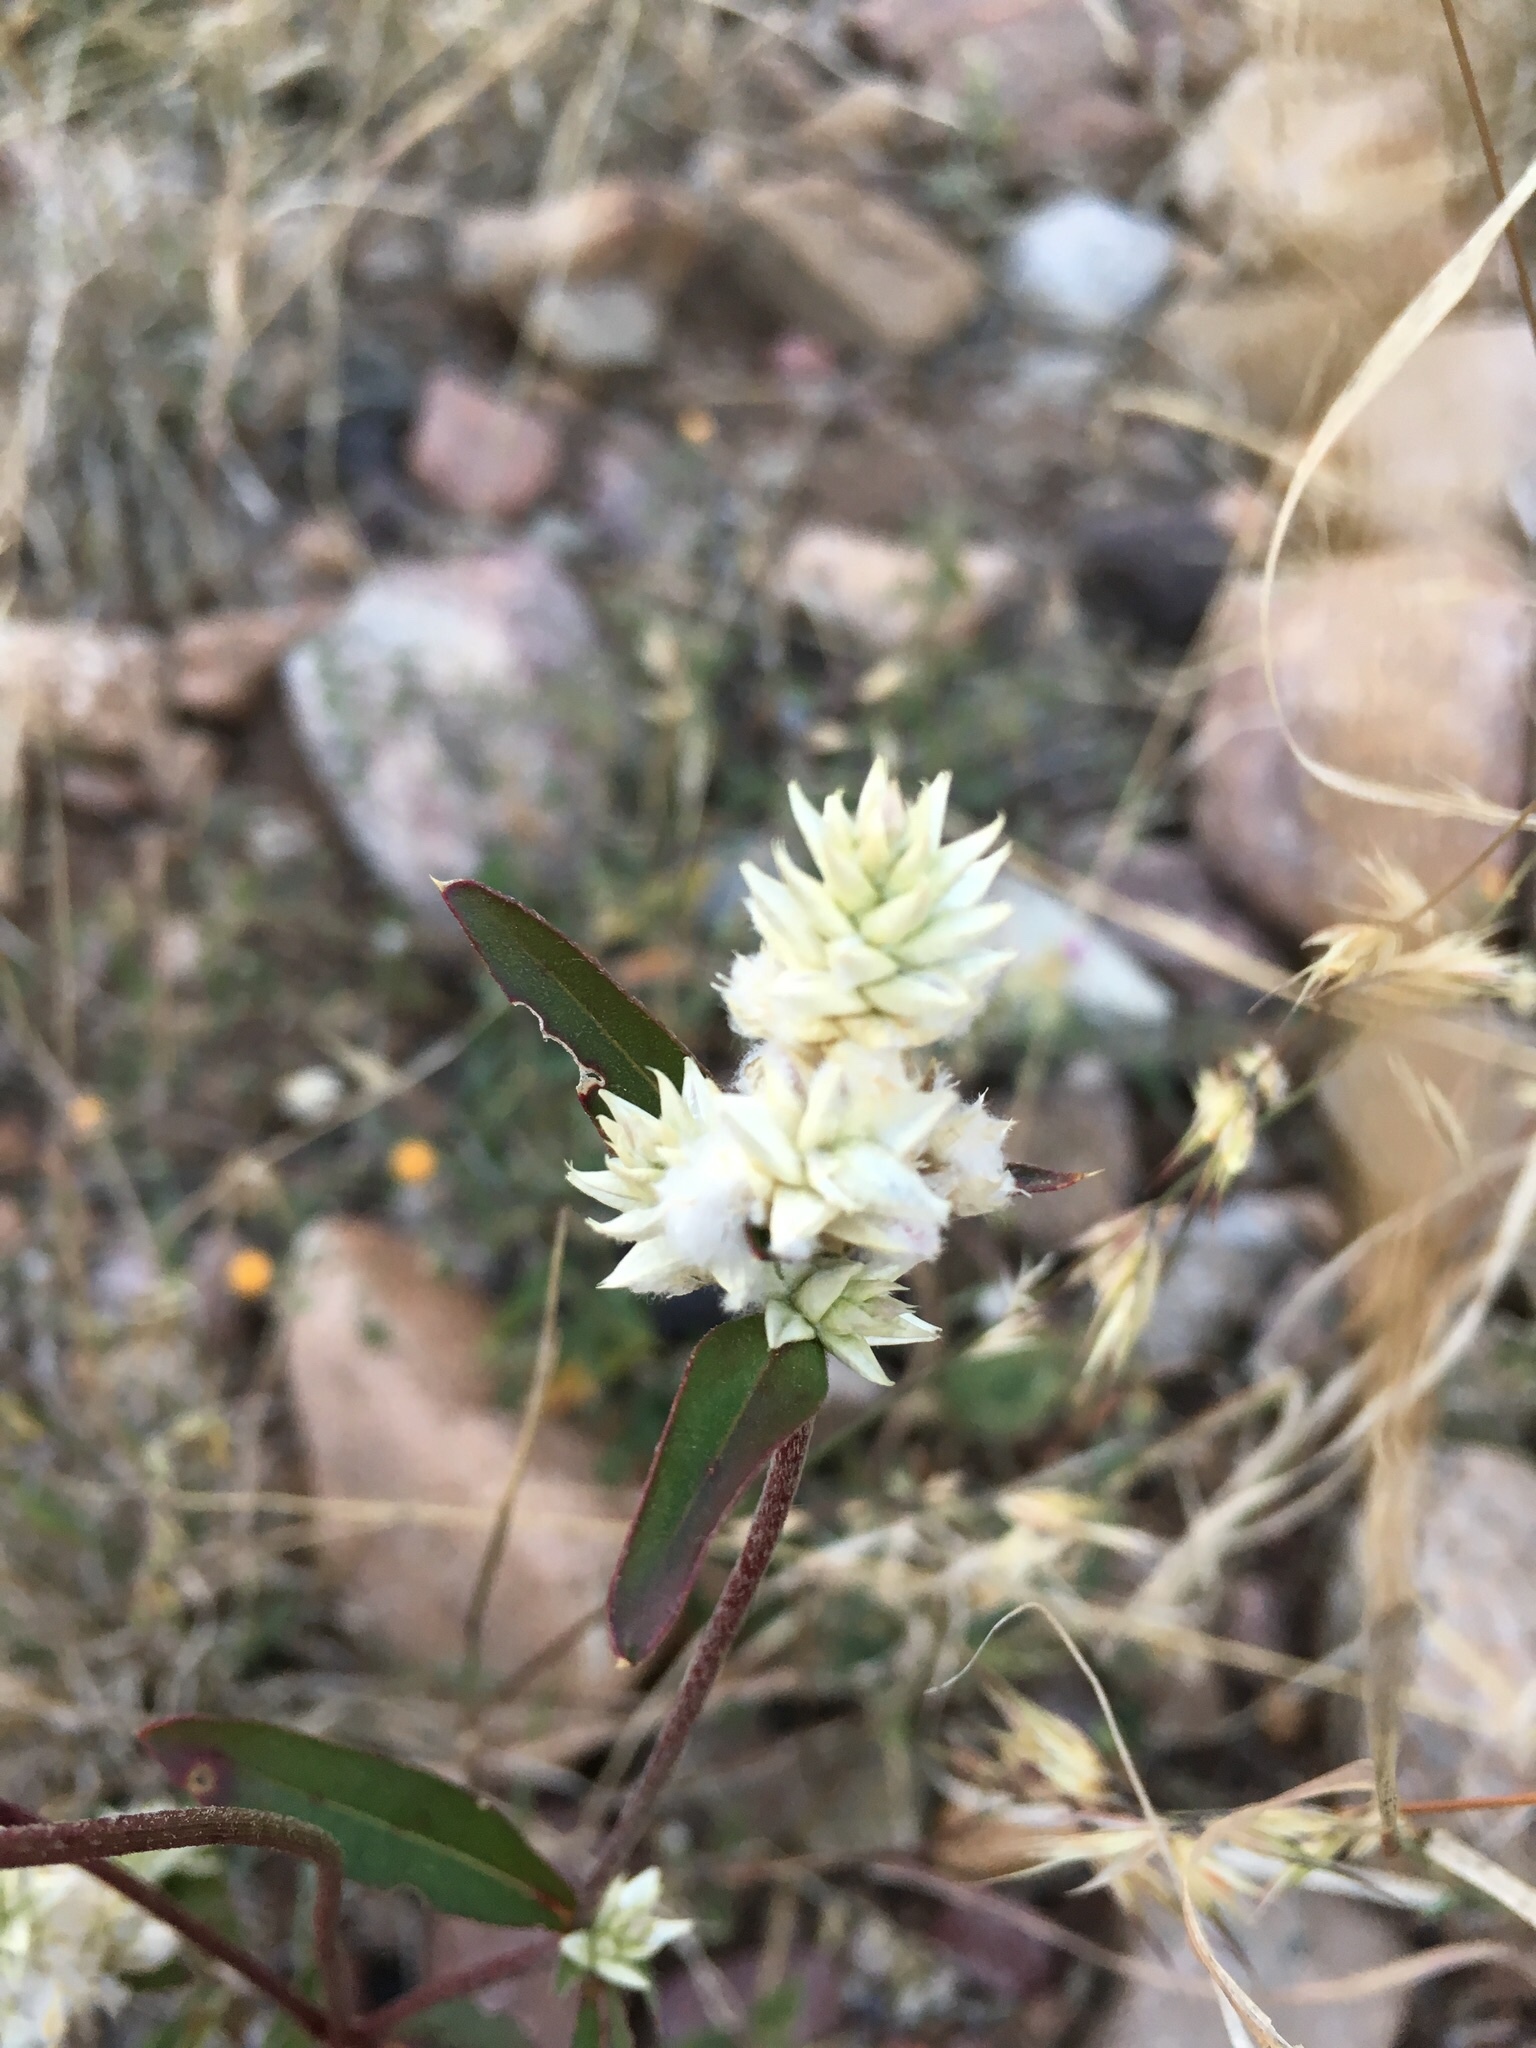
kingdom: Plantae
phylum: Tracheophyta
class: Magnoliopsida
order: Caryophyllales
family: Amaranthaceae
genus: Gomphrena
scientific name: Gomphrena sonorae
